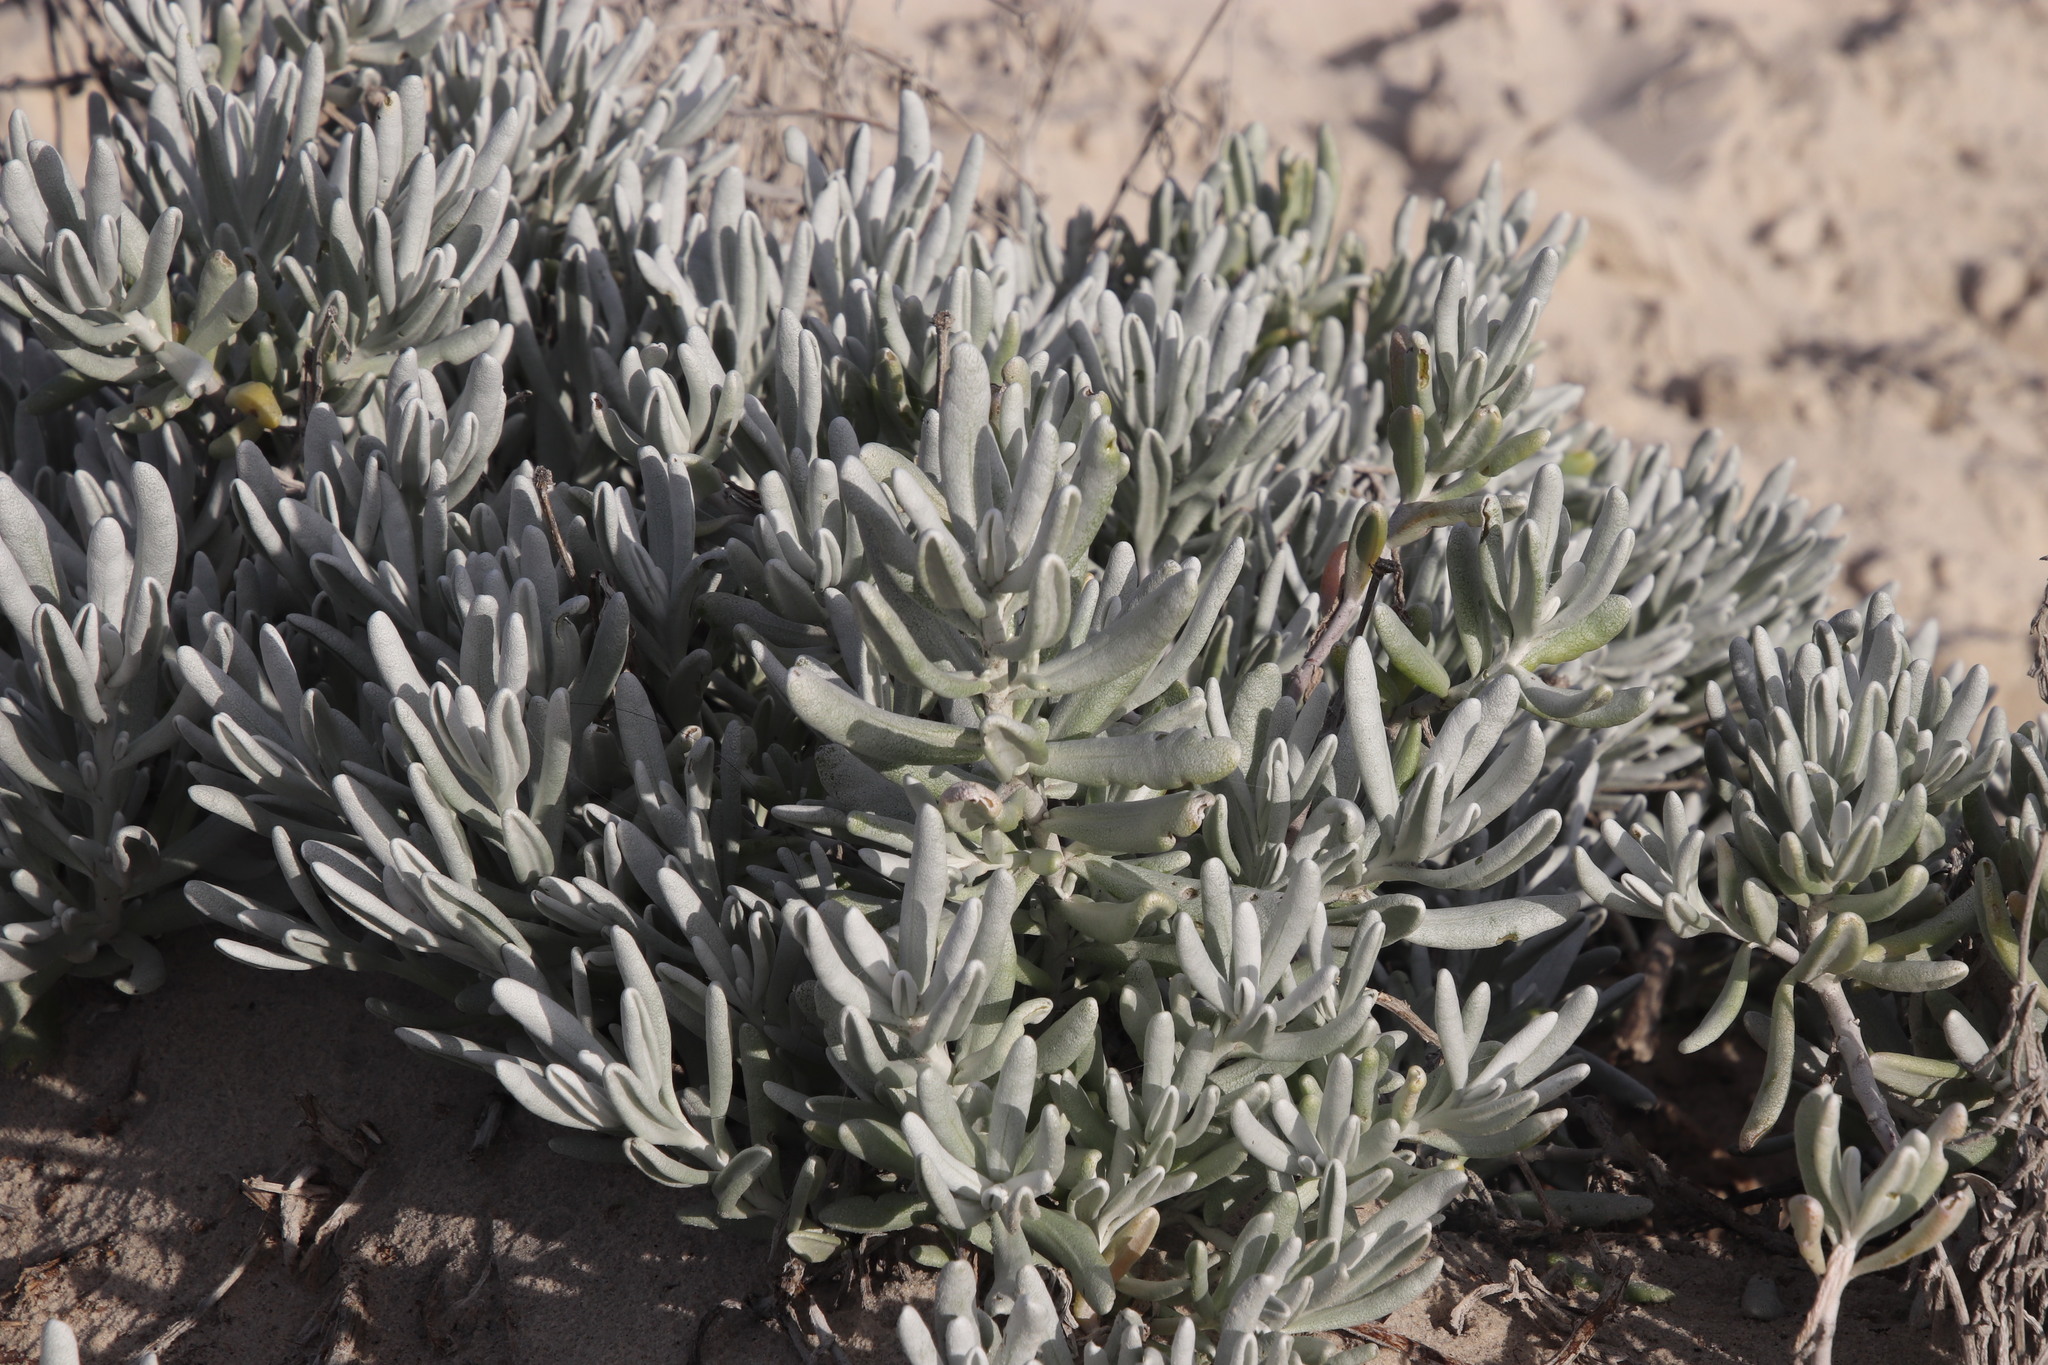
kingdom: Plantae
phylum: Tracheophyta
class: Magnoliopsida
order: Asterales
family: Asteraceae
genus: Didelta
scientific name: Didelta carnosa
